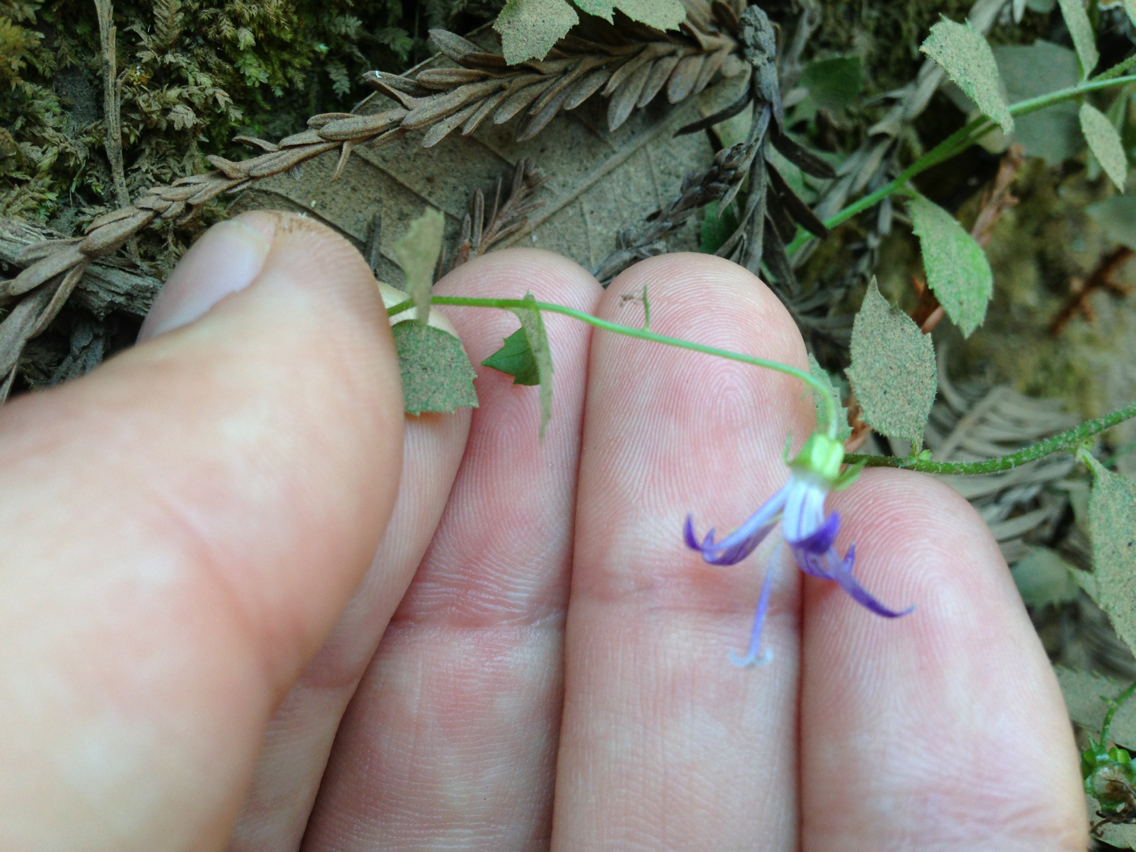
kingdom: Plantae
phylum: Tracheophyta
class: Magnoliopsida
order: Asterales
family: Campanulaceae
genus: Smithiastrum
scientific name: Smithiastrum prenanthoides
